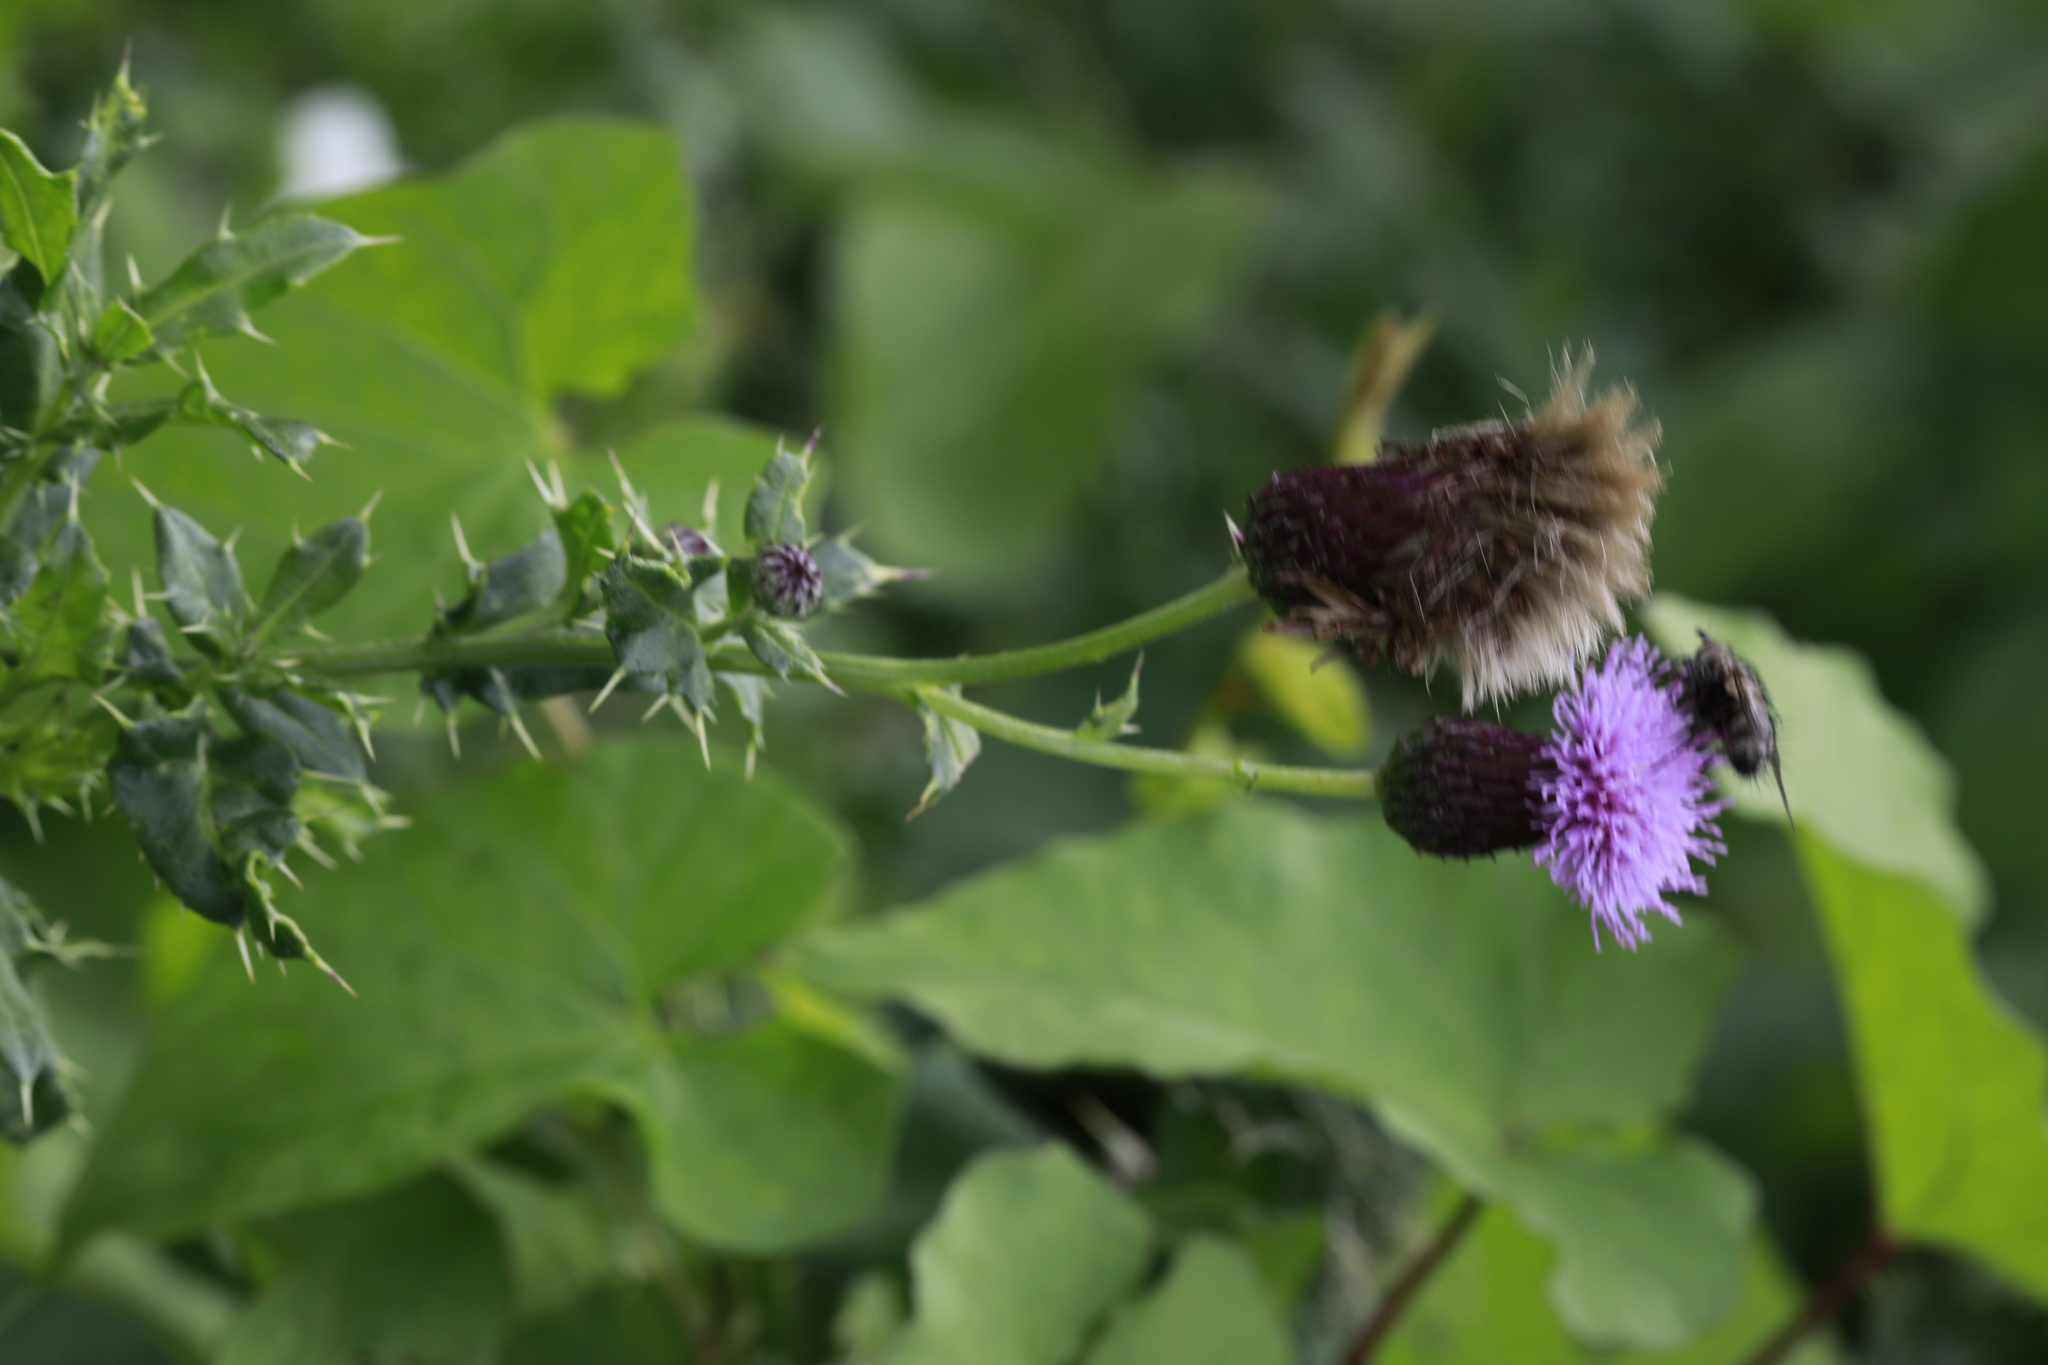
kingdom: Plantae
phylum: Tracheophyta
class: Magnoliopsida
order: Asterales
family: Asteraceae
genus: Cirsium
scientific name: Cirsium arvense
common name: Creeping thistle
